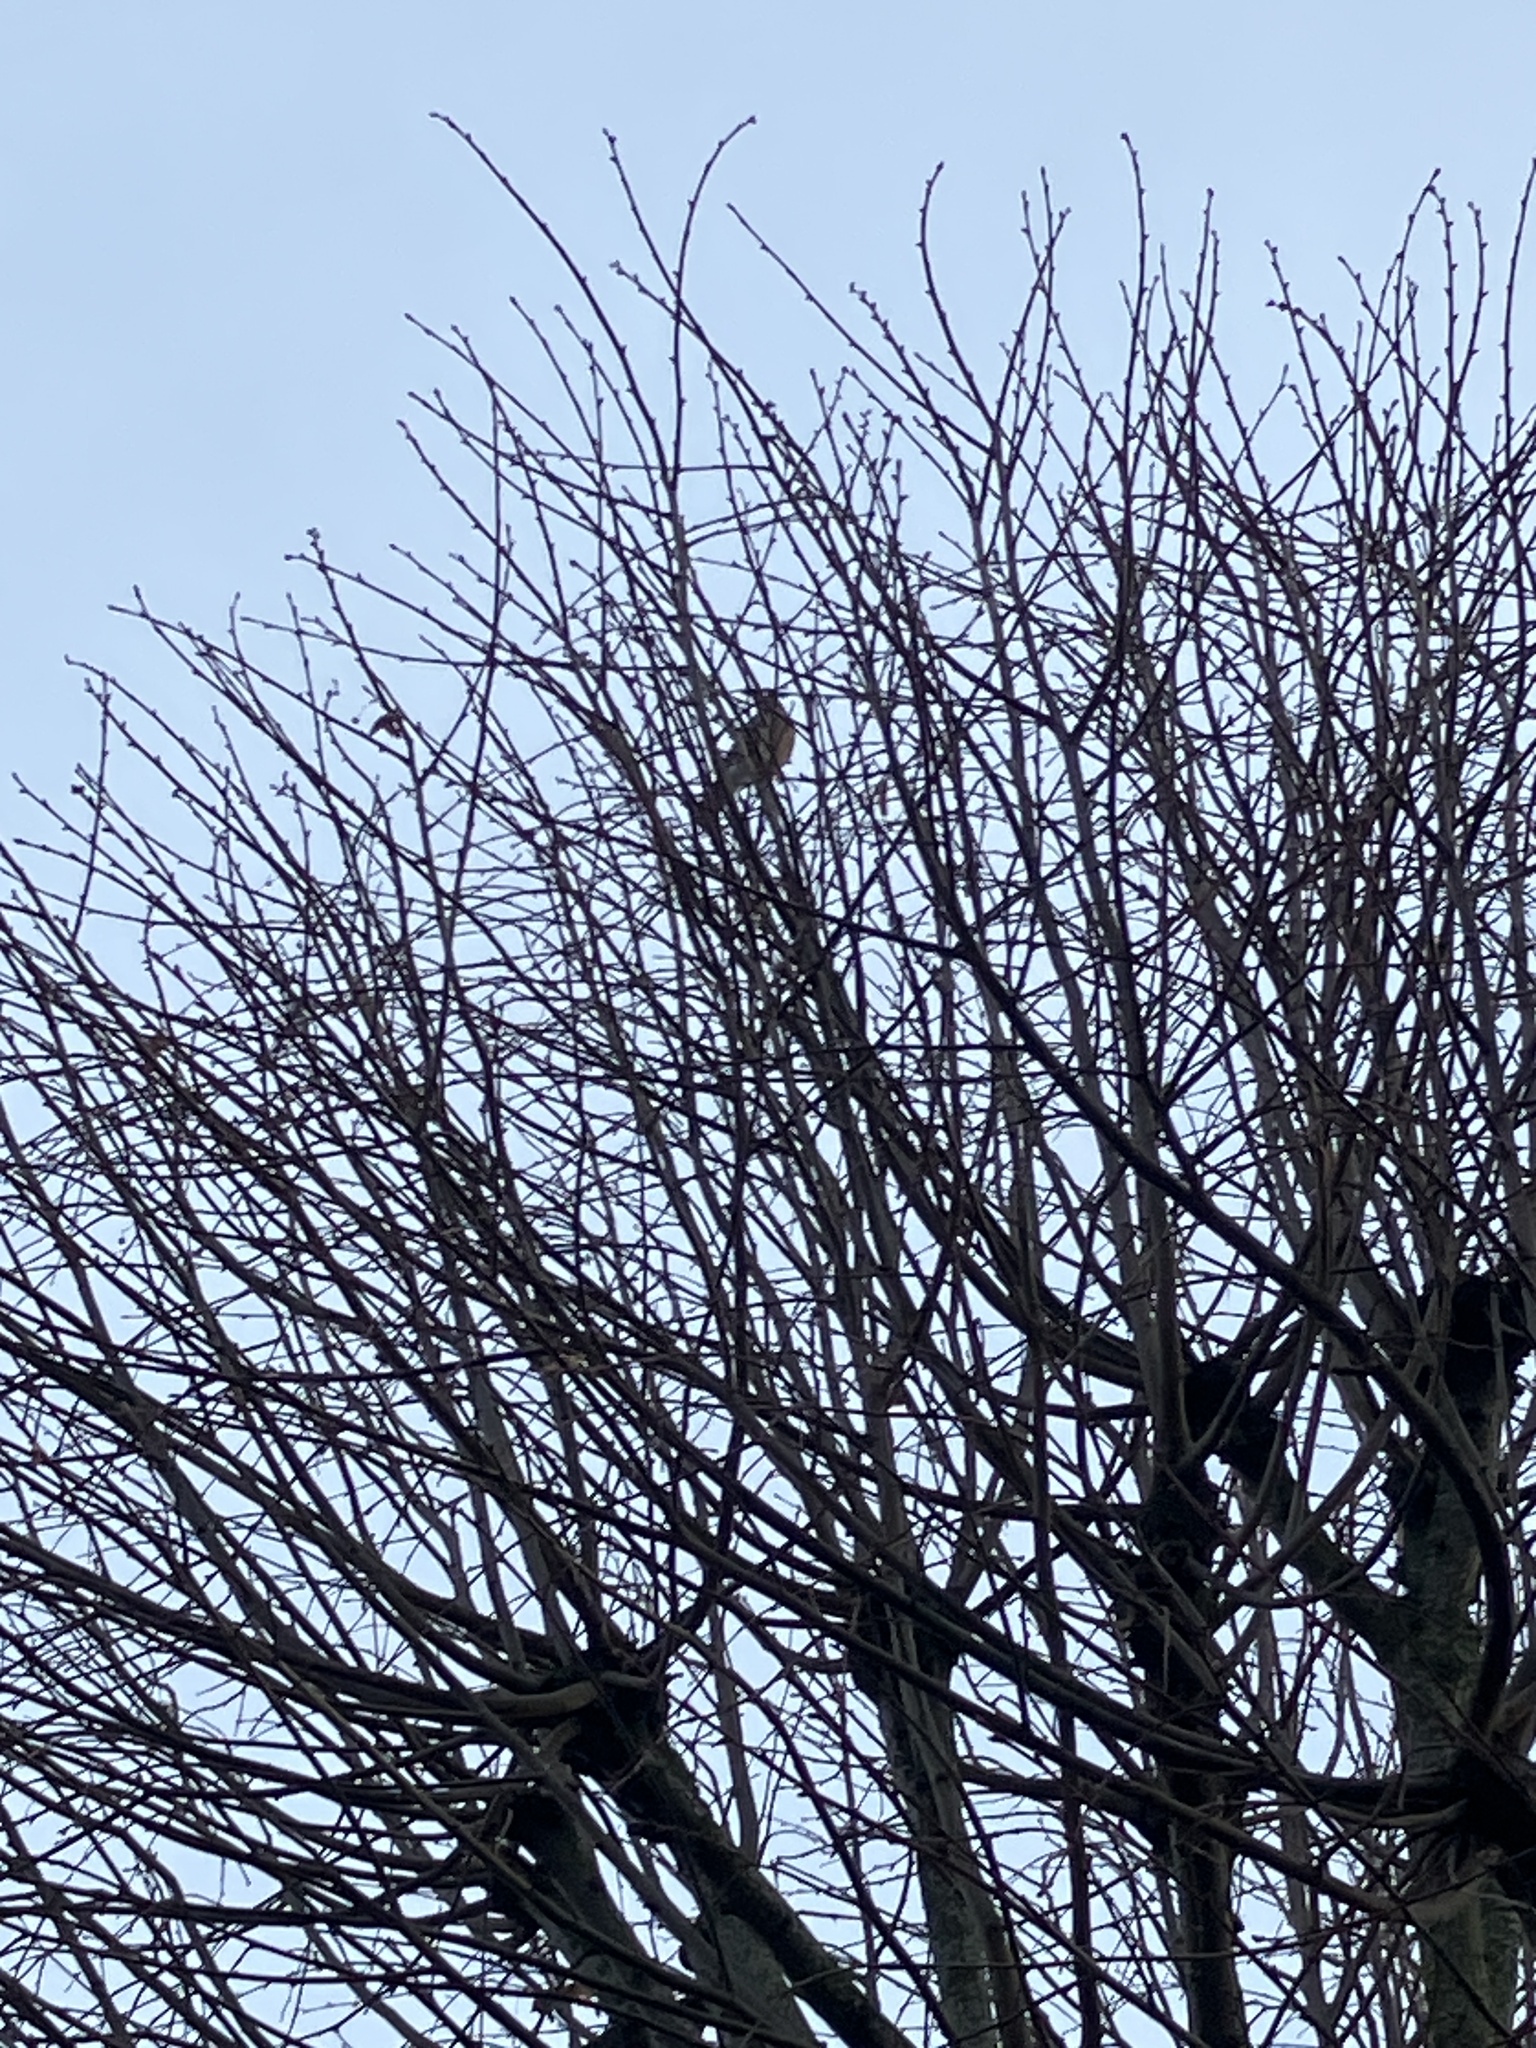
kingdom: Animalia
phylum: Chordata
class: Aves
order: Passeriformes
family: Corvidae
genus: Garrulus
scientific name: Garrulus glandarius
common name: Eurasian jay
